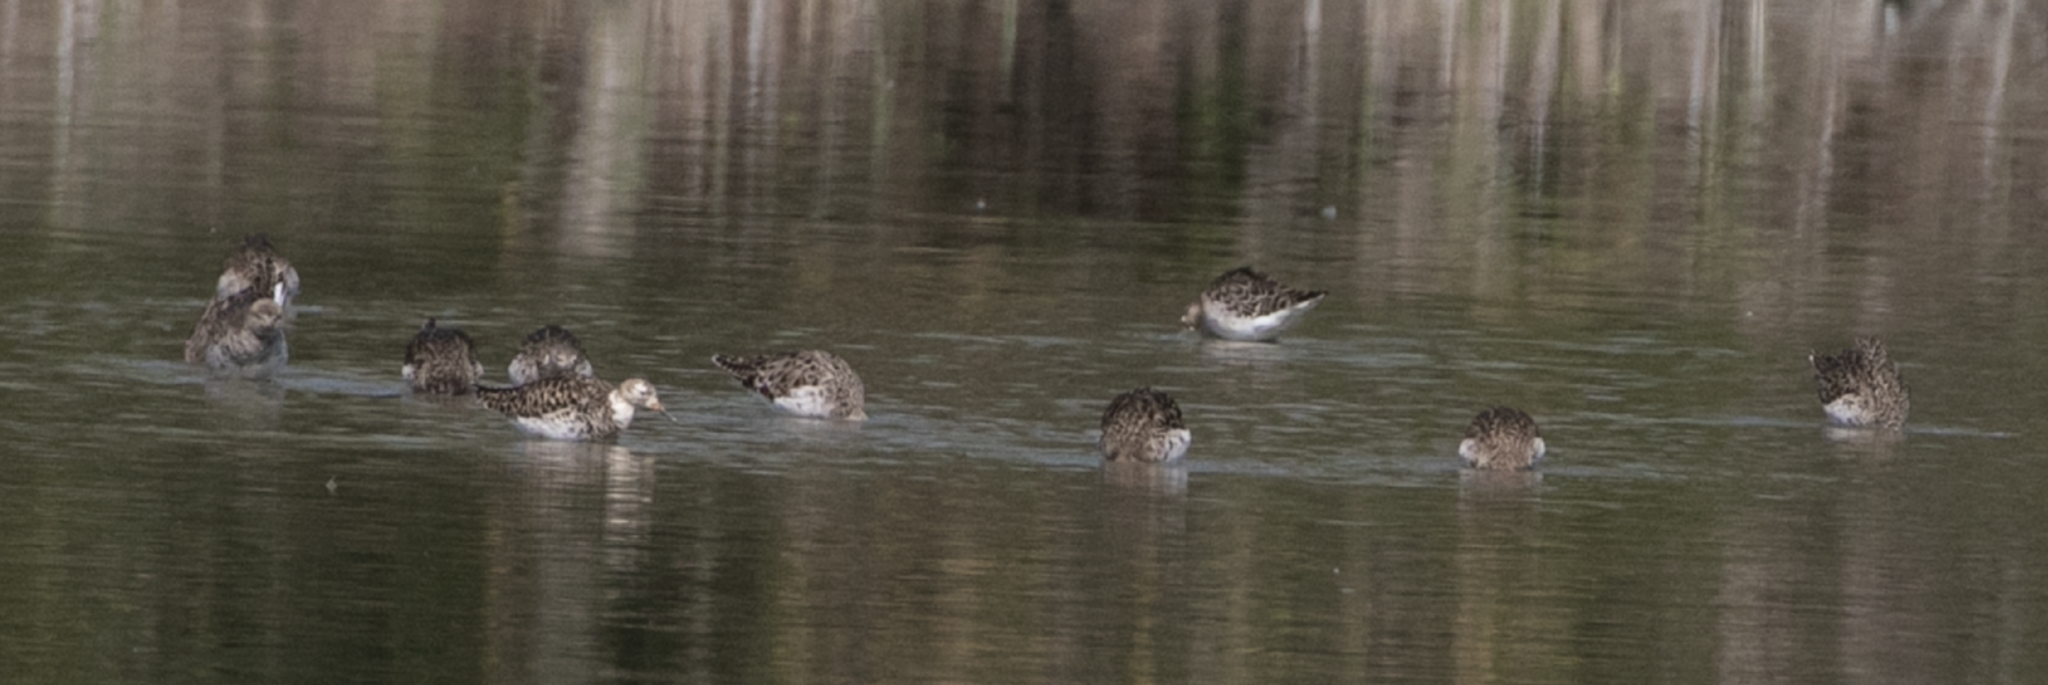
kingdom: Animalia
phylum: Chordata
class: Aves
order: Charadriiformes
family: Scolopacidae
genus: Calidris
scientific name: Calidris pugnax
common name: Ruff
